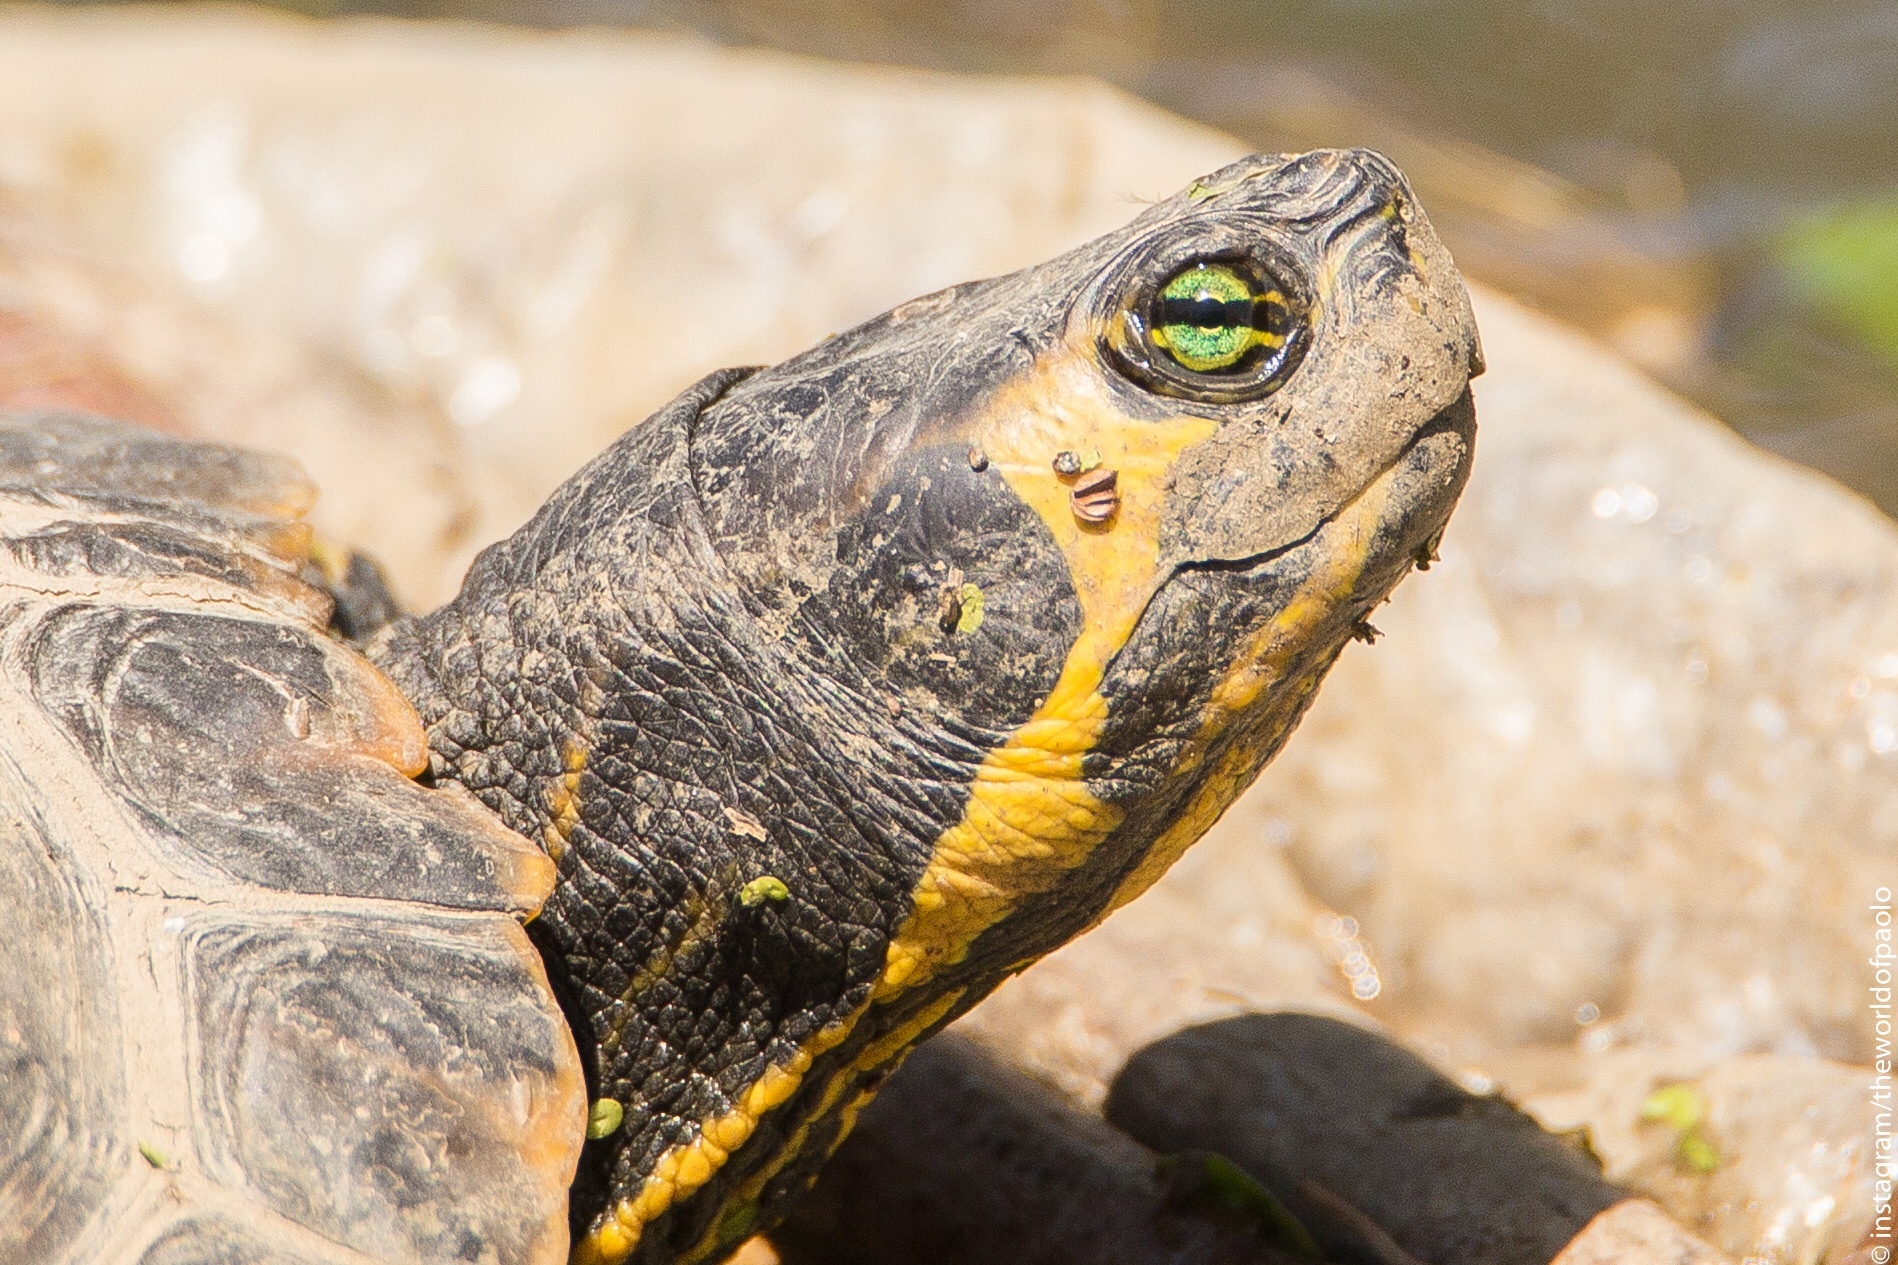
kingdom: Animalia
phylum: Chordata
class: Testudines
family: Emydidae
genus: Trachemys
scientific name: Trachemys scripta
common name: Slider
